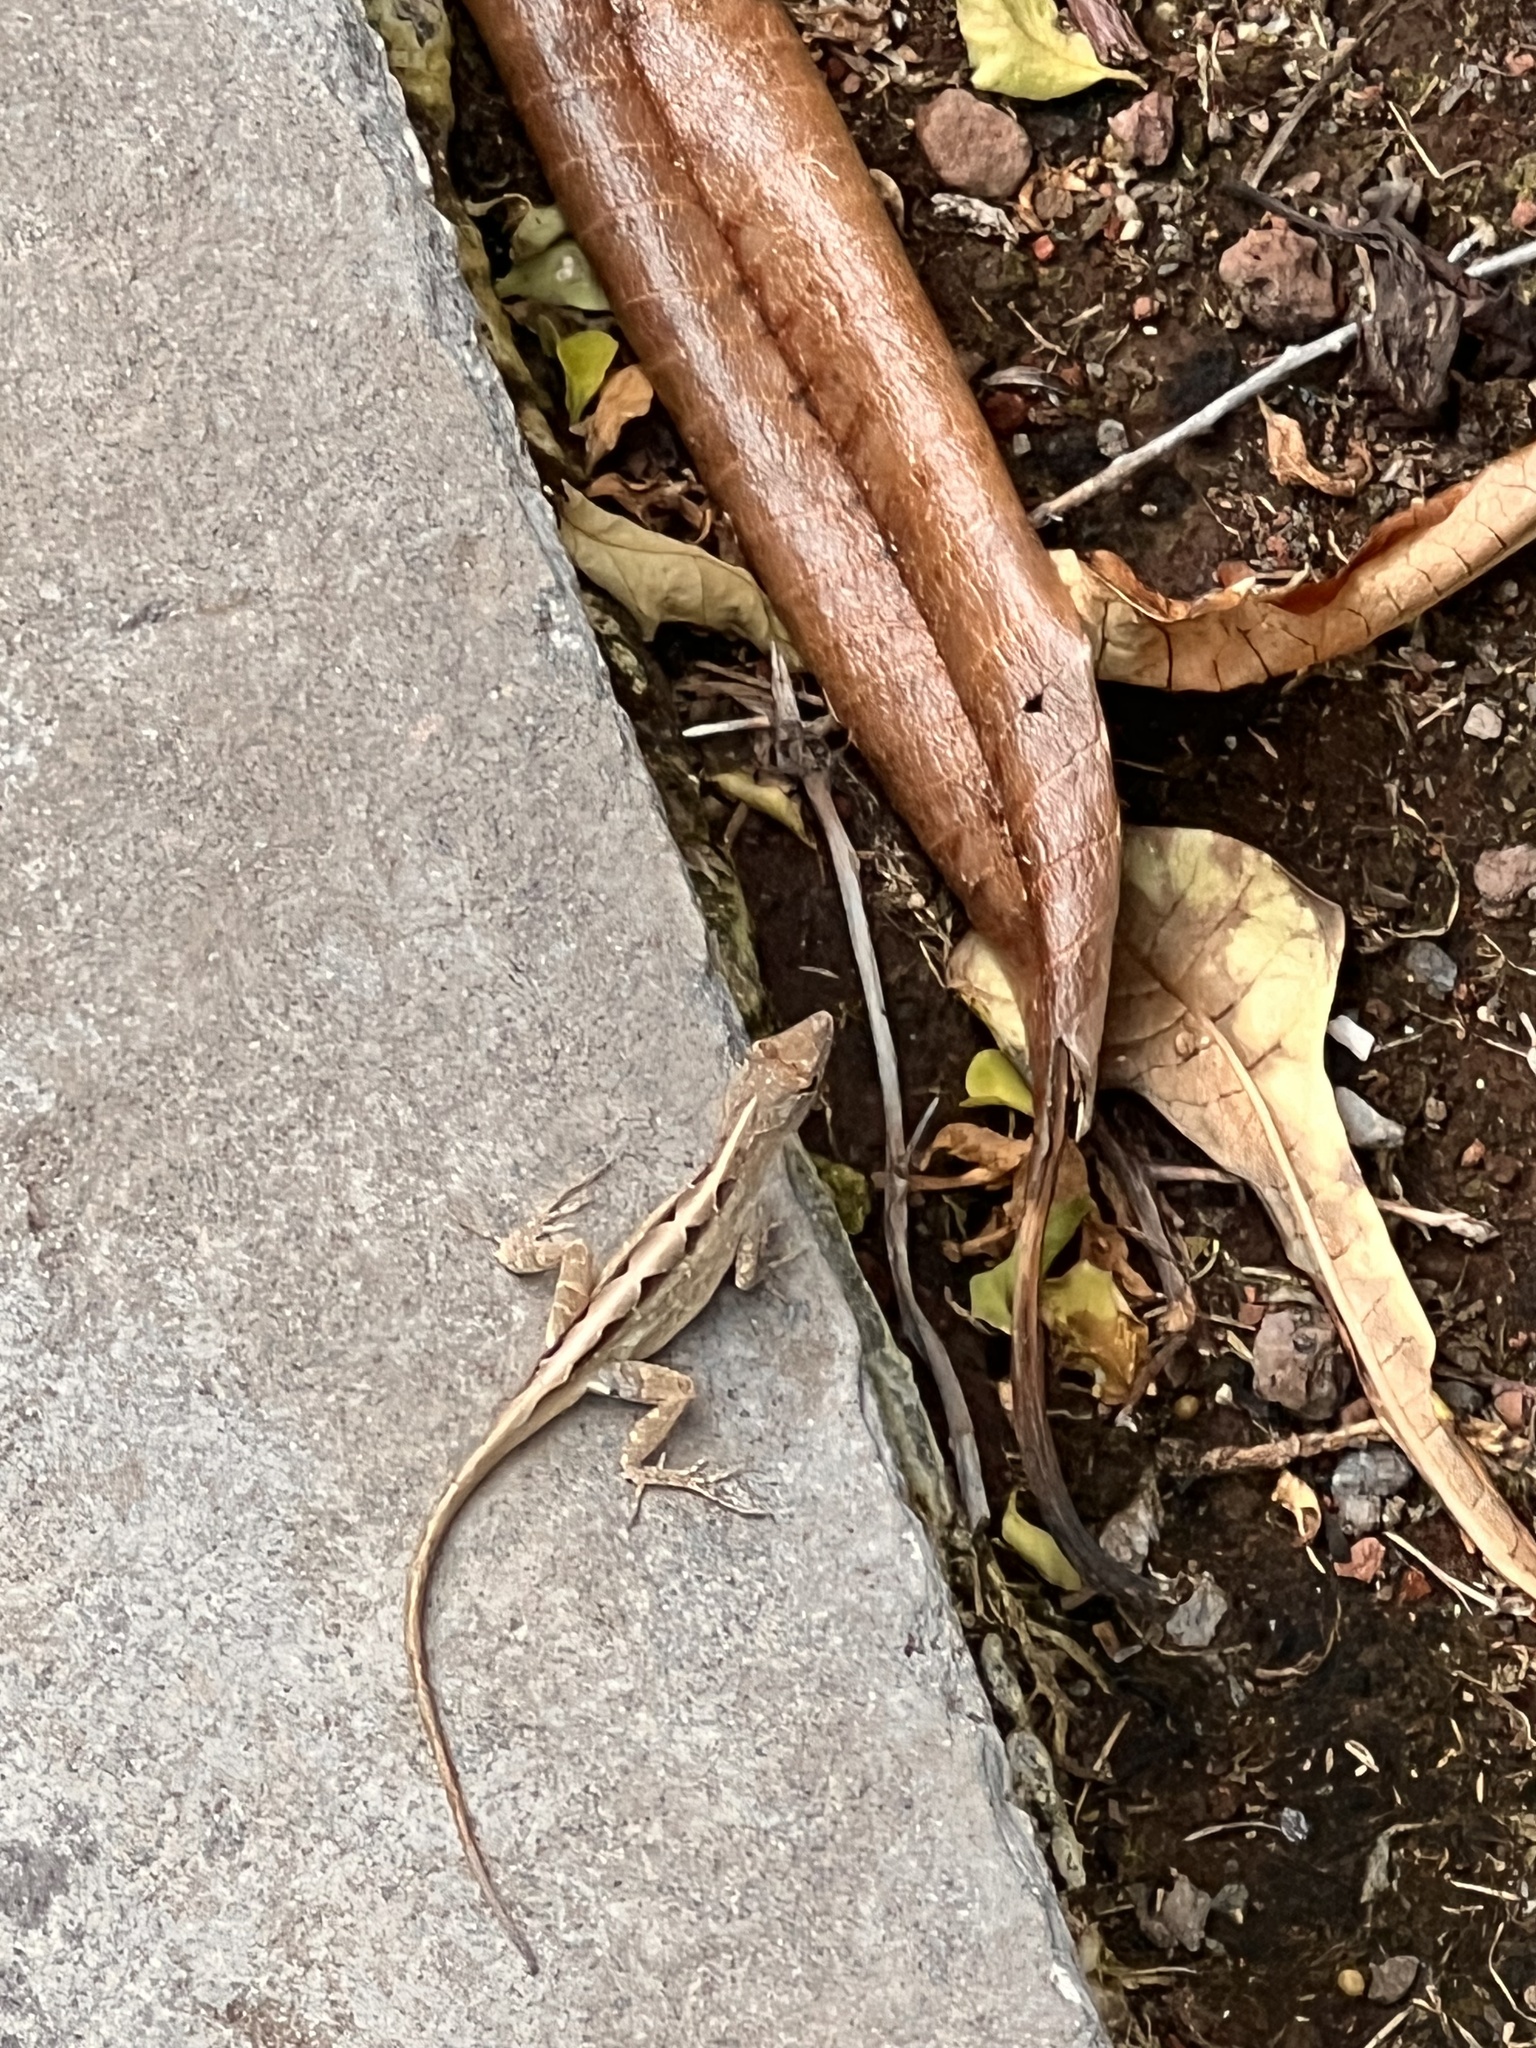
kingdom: Animalia
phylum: Chordata
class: Squamata
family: Dactyloidae
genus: Anolis
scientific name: Anolis sagrei
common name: Brown anole
